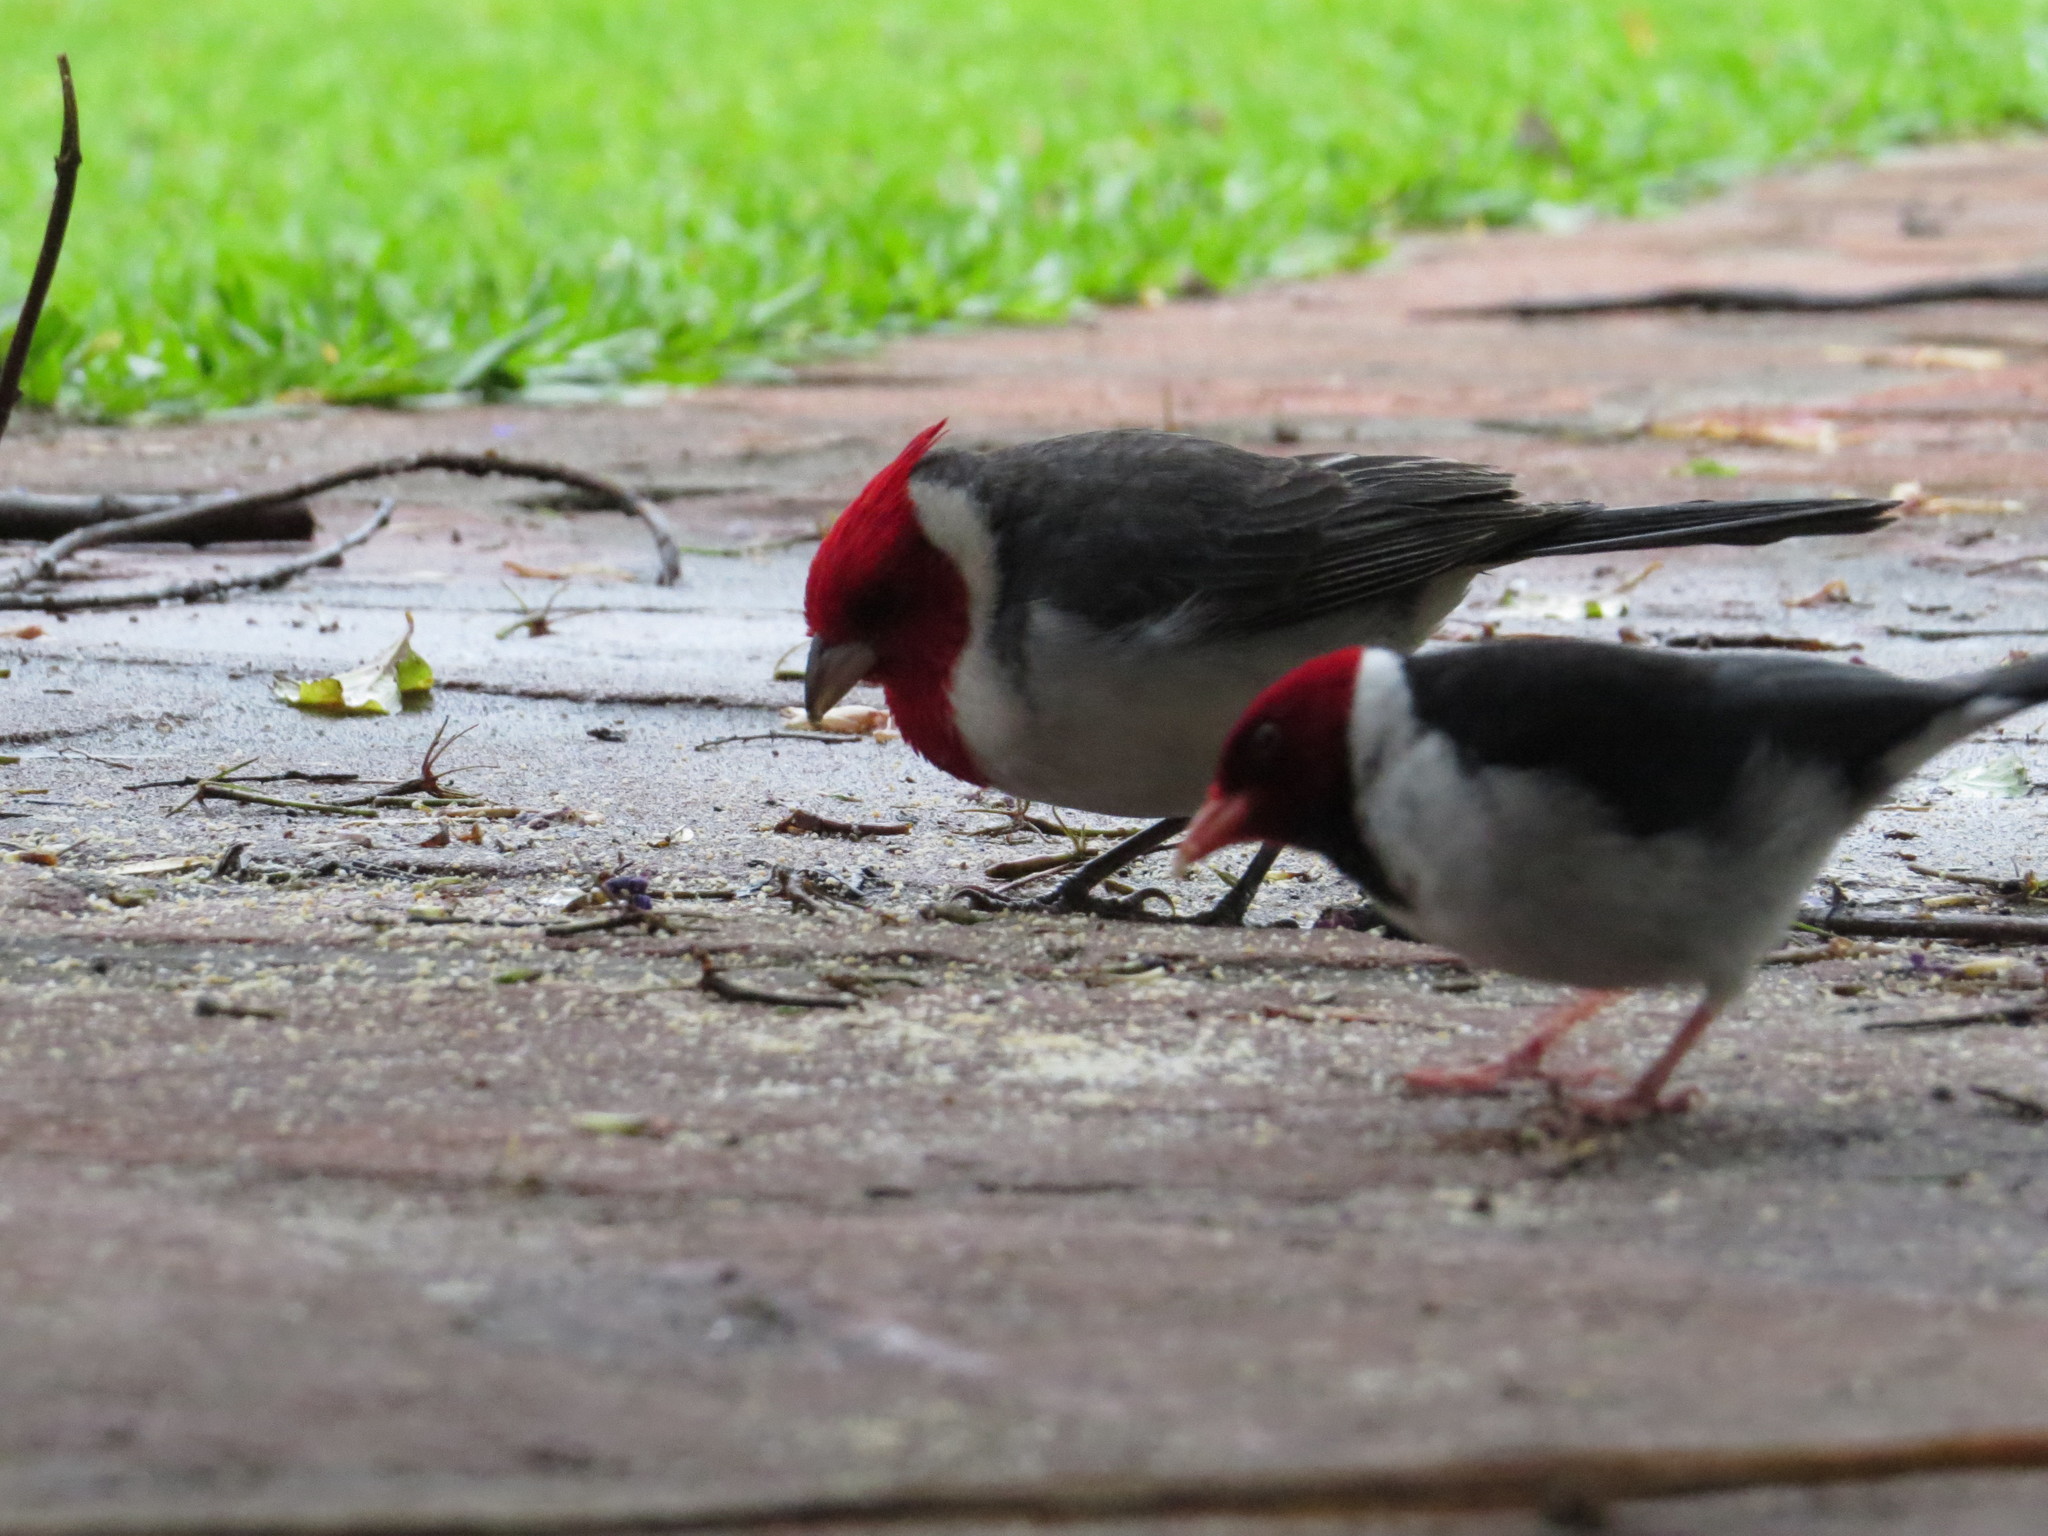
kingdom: Animalia
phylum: Chordata
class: Aves
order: Passeriformes
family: Thraupidae
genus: Paroaria
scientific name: Paroaria coronata
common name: Red-crested cardinal
